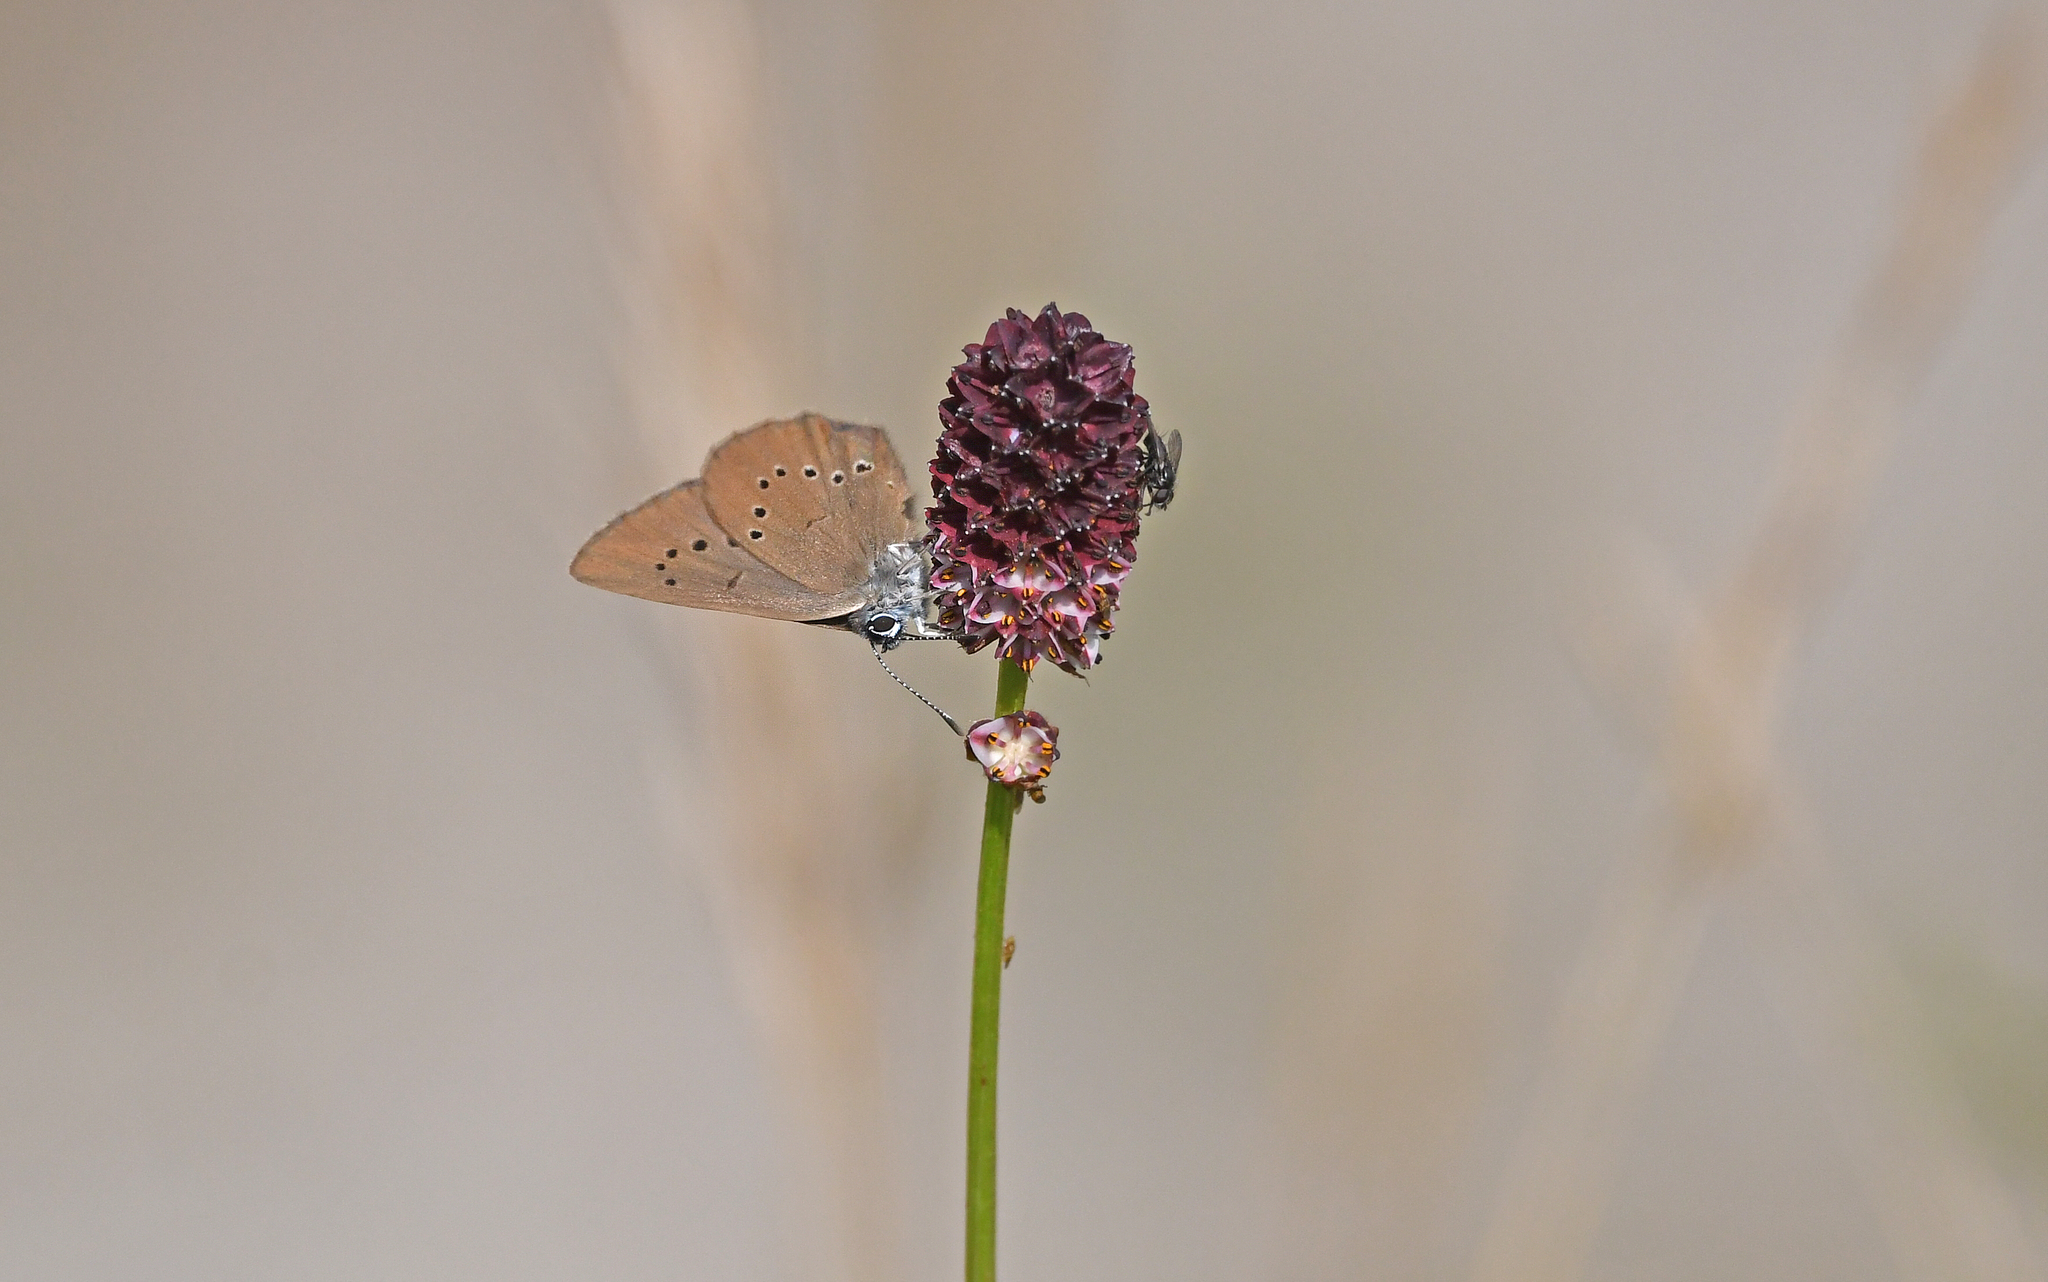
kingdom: Animalia
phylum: Arthropoda
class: Insecta
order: Lepidoptera
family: Lycaenidae
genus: Maculinea
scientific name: Maculinea nausithous
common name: Dusky large blue
